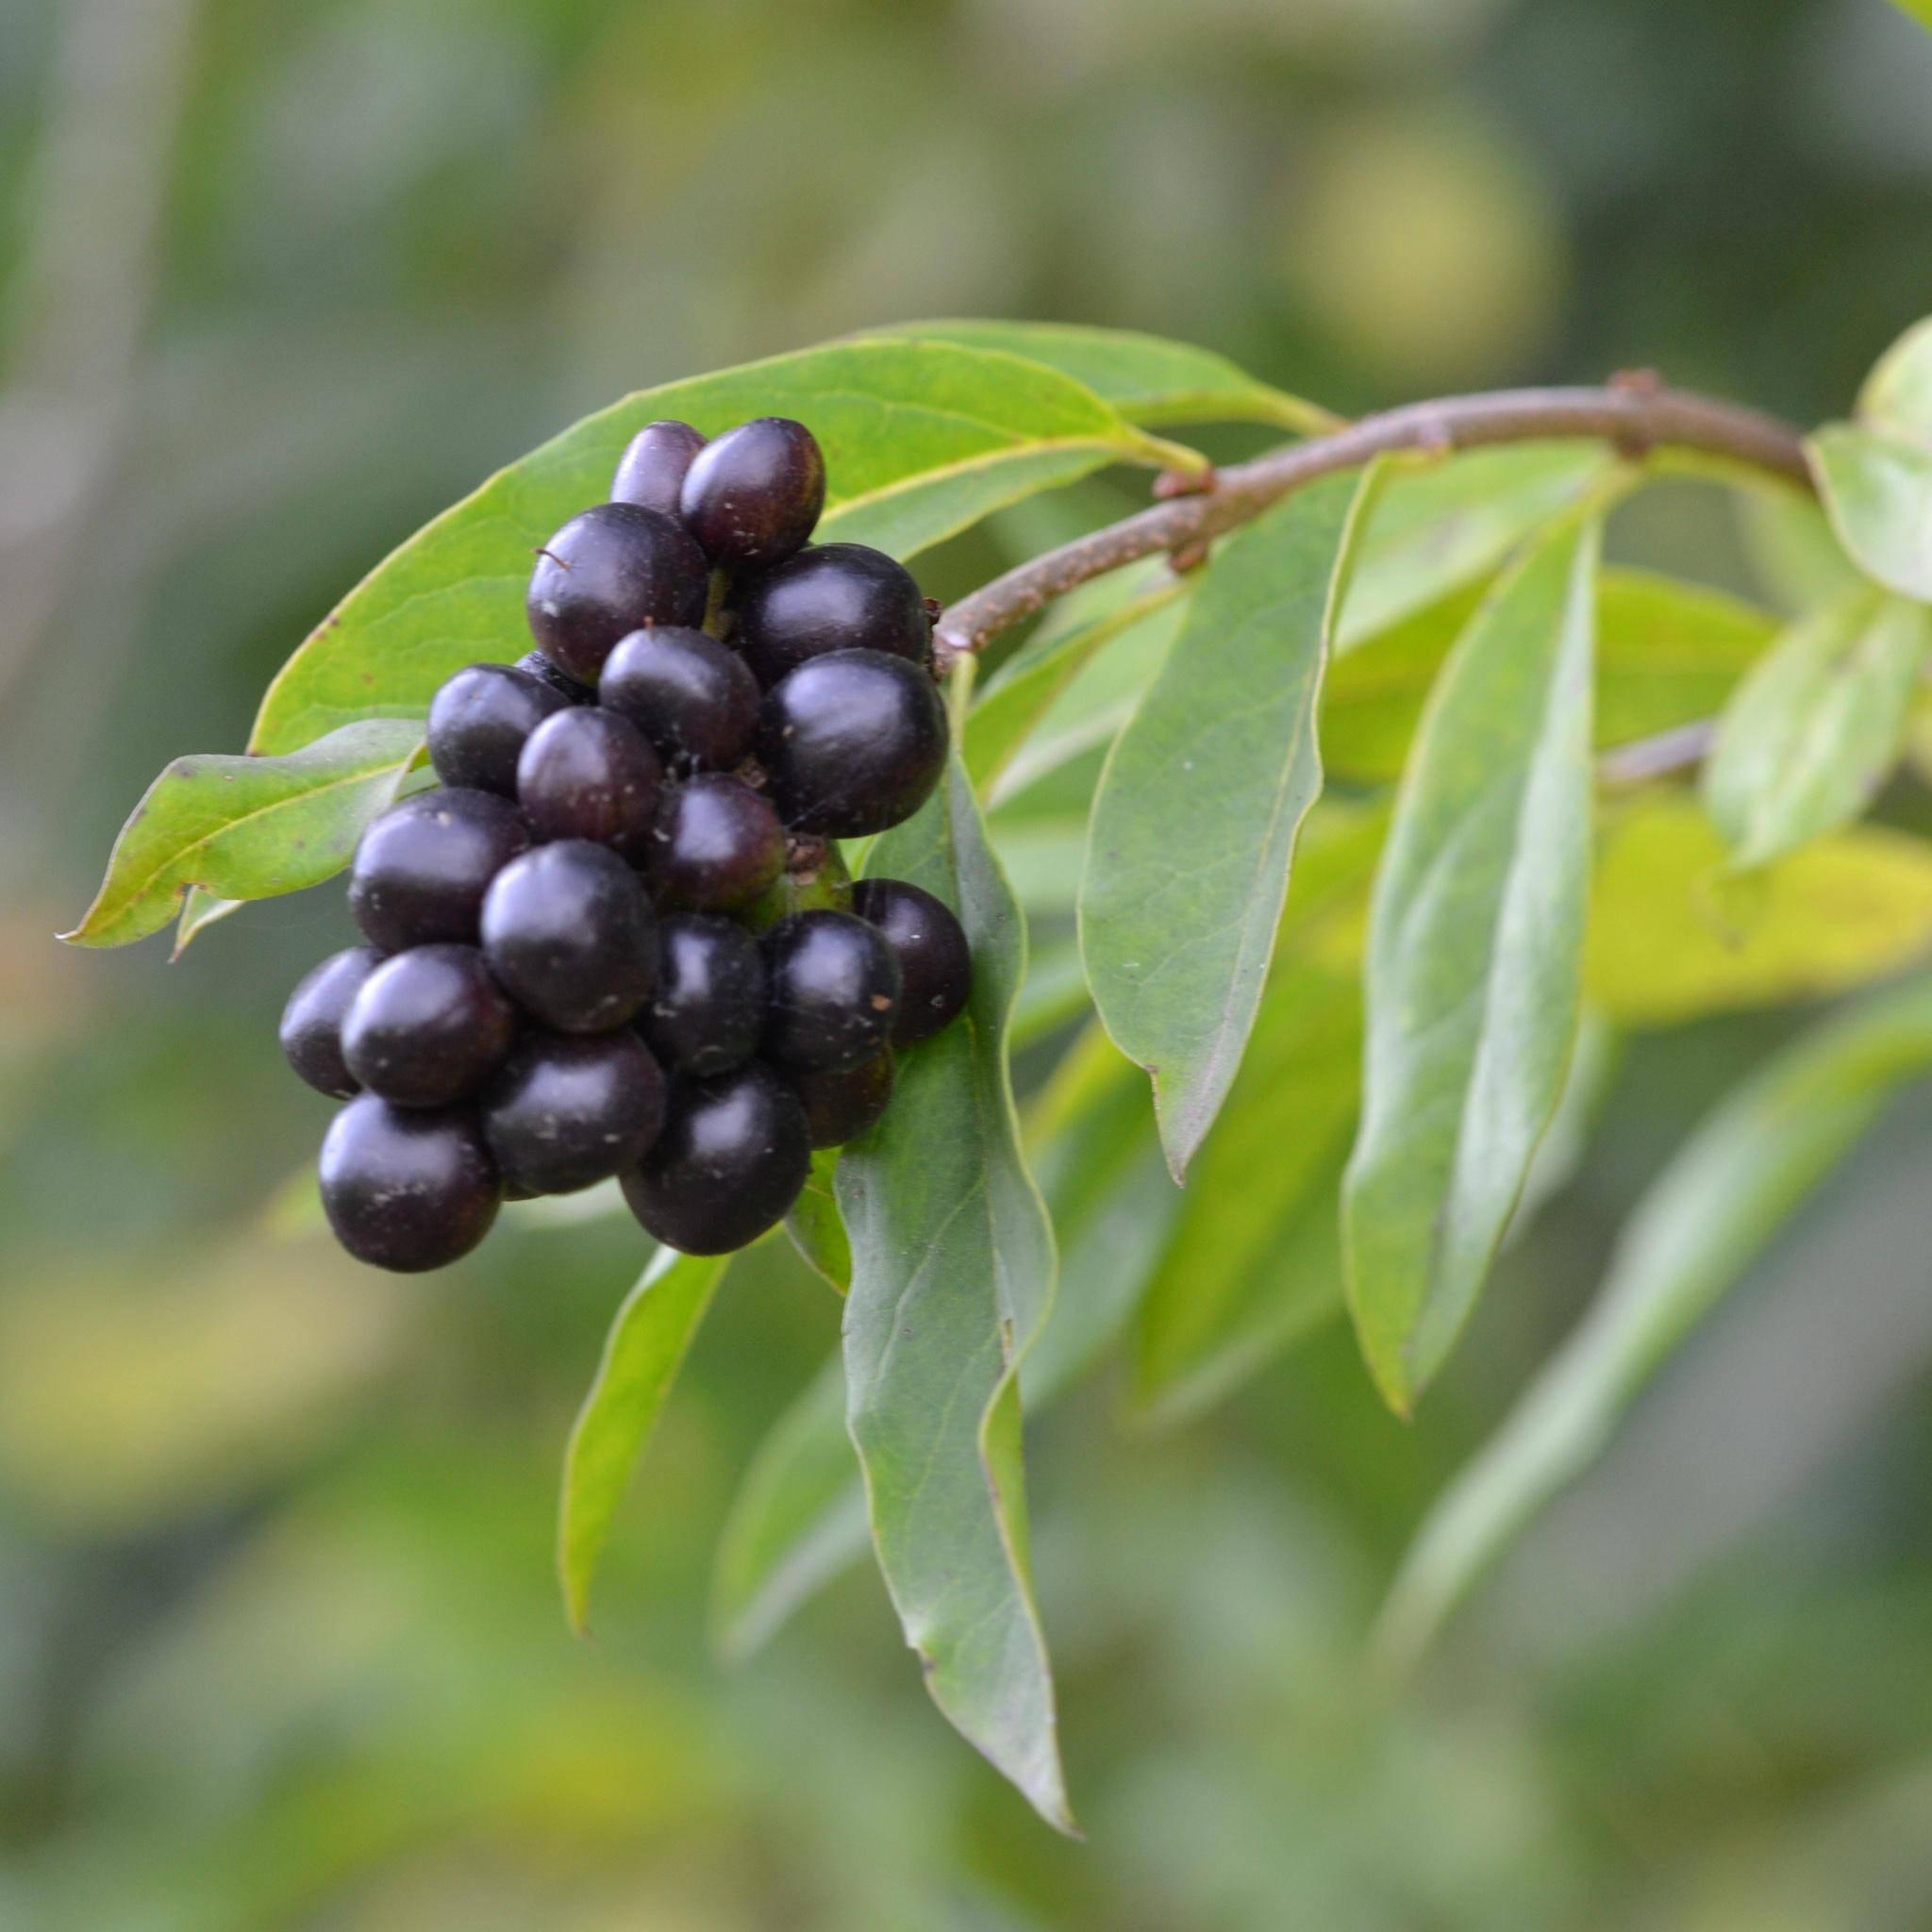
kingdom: Plantae
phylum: Tracheophyta
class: Magnoliopsida
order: Lamiales
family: Oleaceae
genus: Ligustrum
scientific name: Ligustrum vulgare
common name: Wild privet
